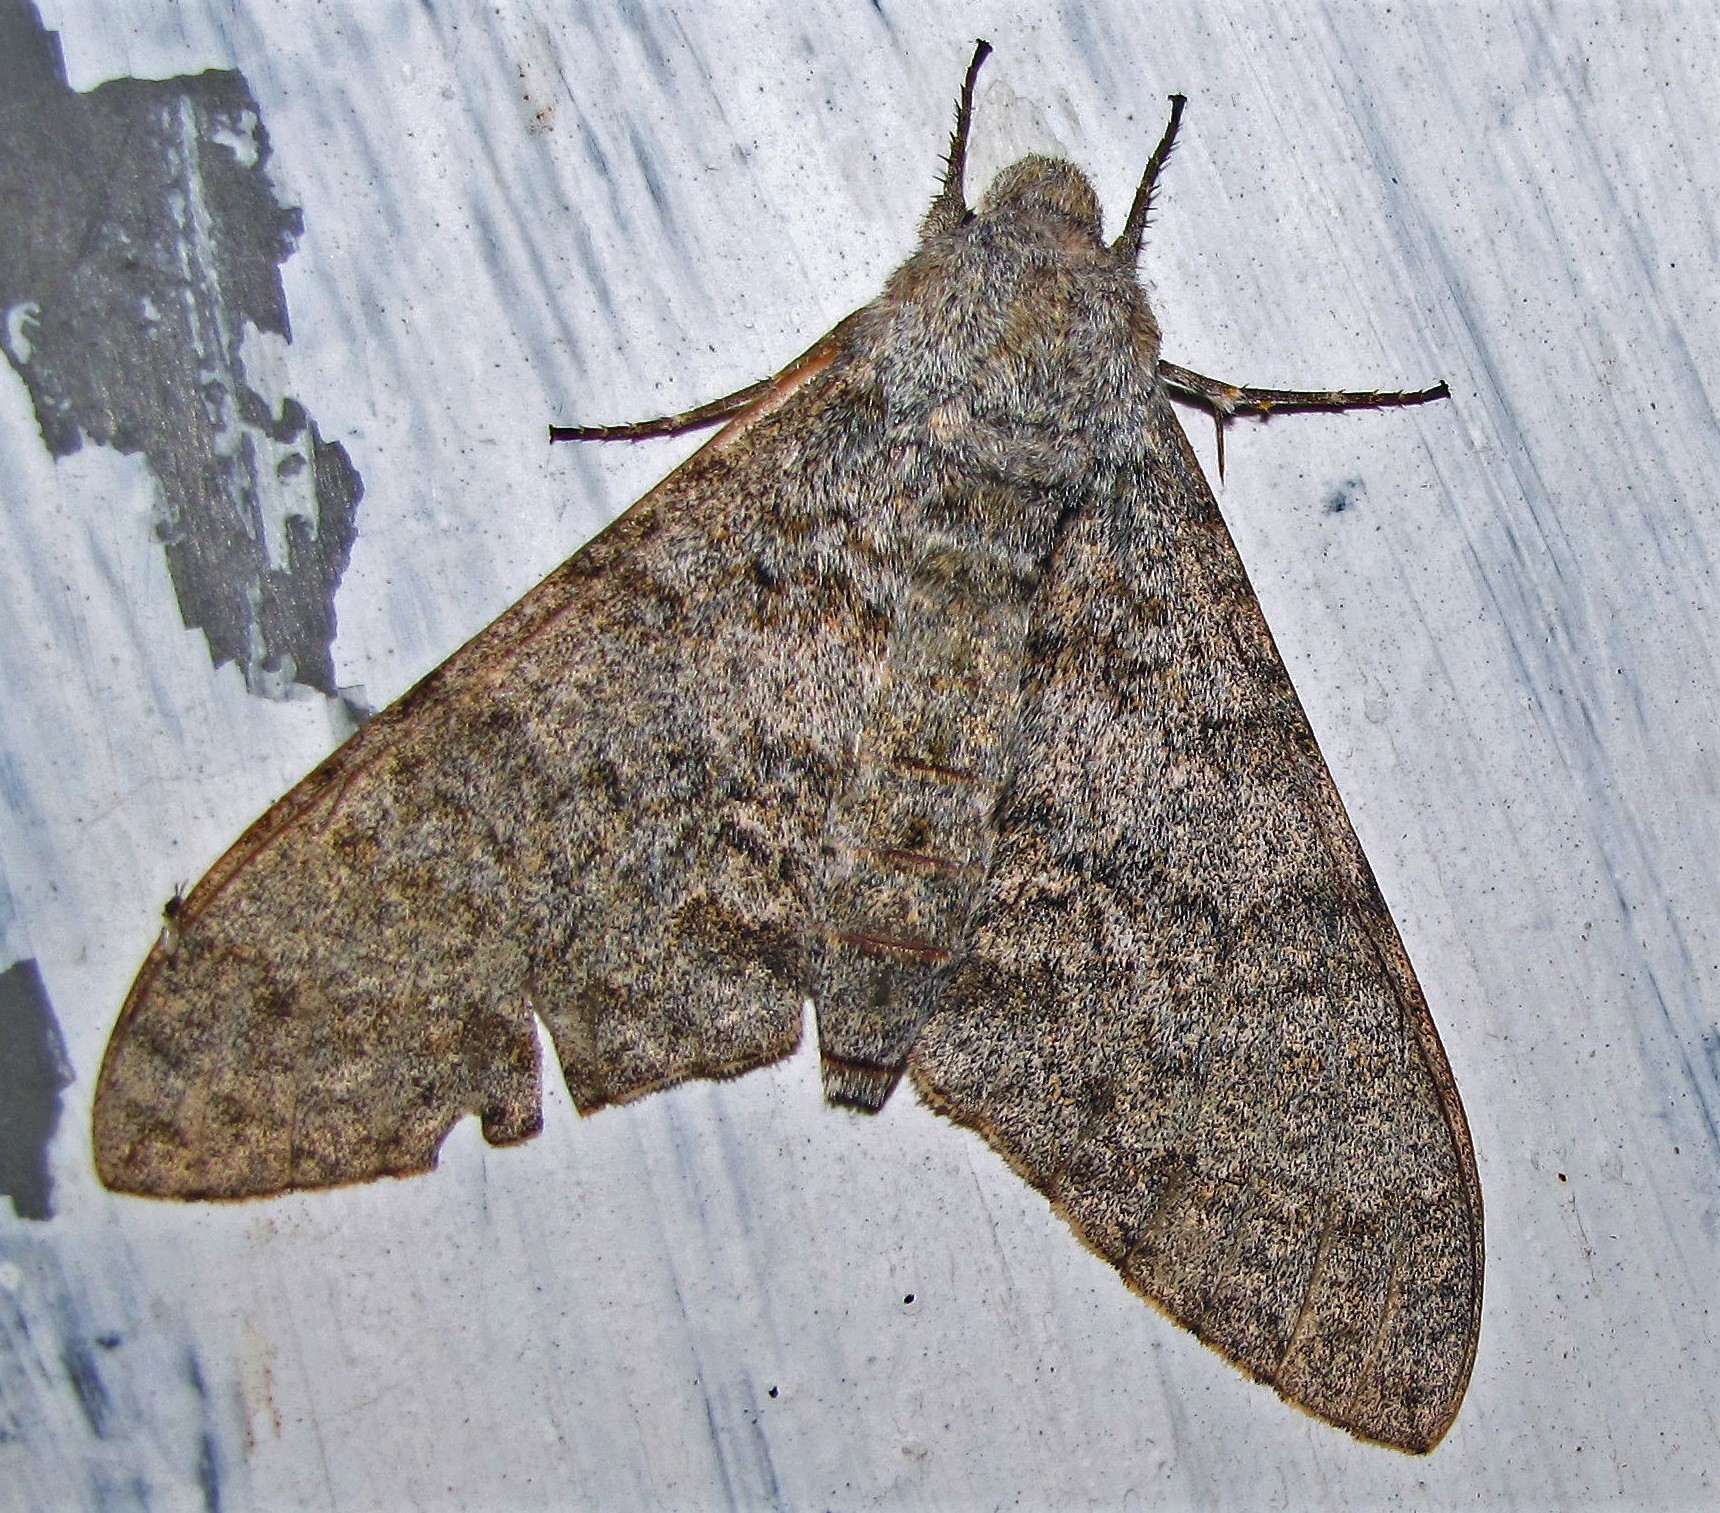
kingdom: Animalia
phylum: Arthropoda
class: Insecta
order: Lepidoptera
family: Sphingidae
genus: Manduca
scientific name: Manduca bergi
